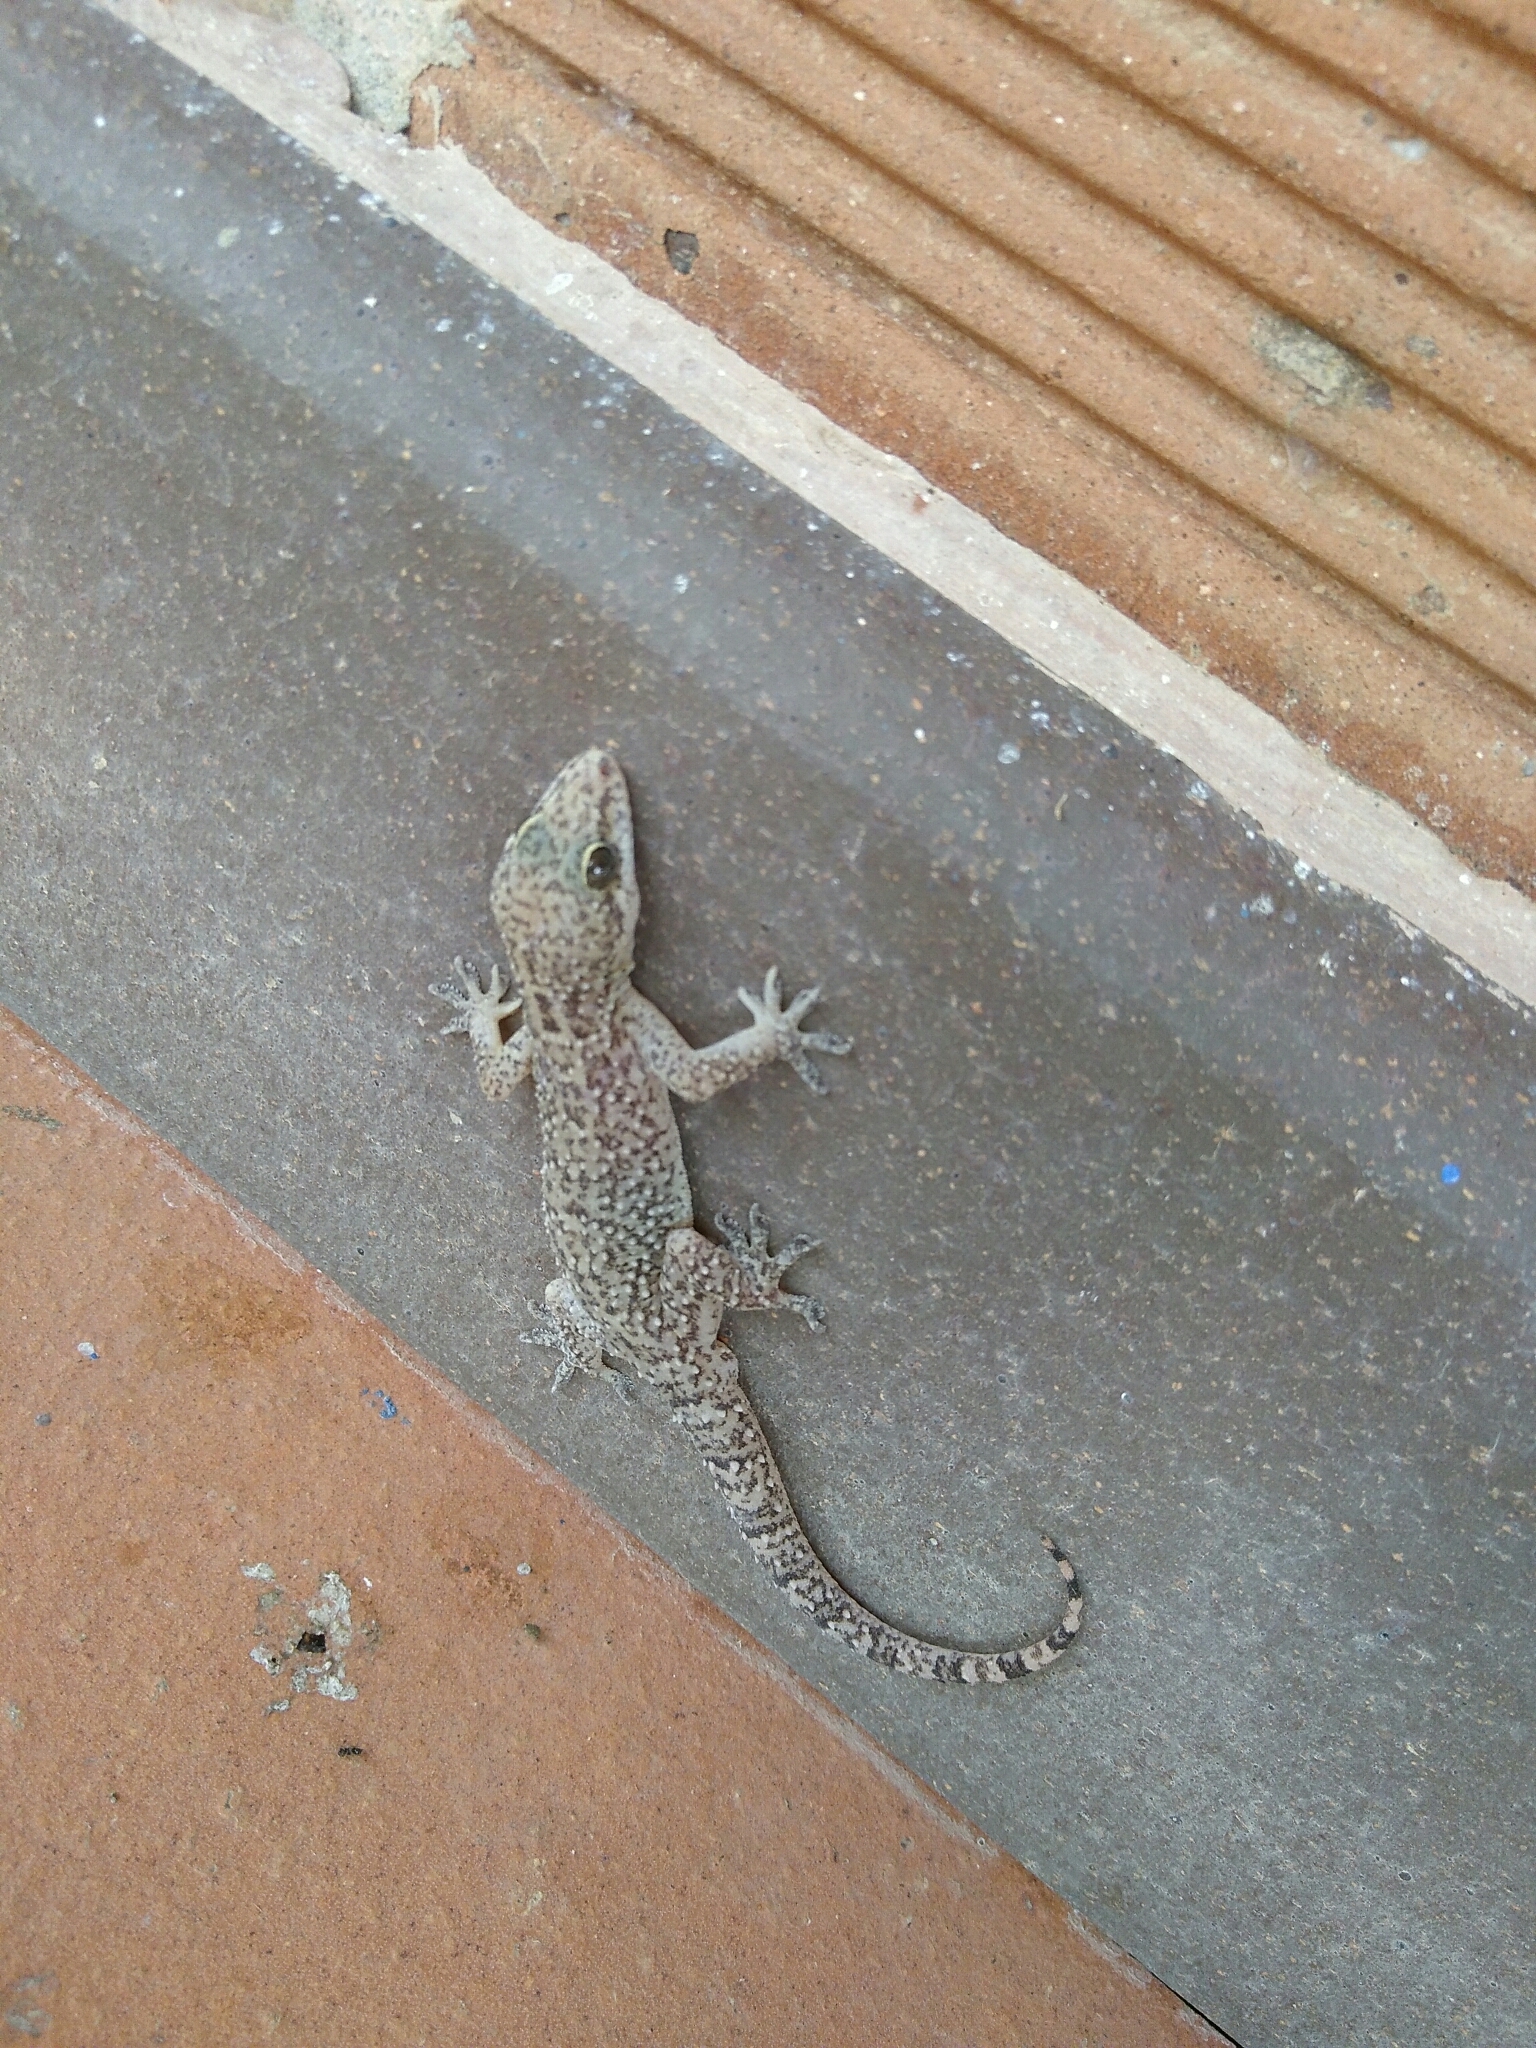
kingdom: Animalia
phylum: Chordata
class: Squamata
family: Gekkonidae
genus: Hemidactylus
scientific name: Hemidactylus angulatus
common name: Brook's house gecko
